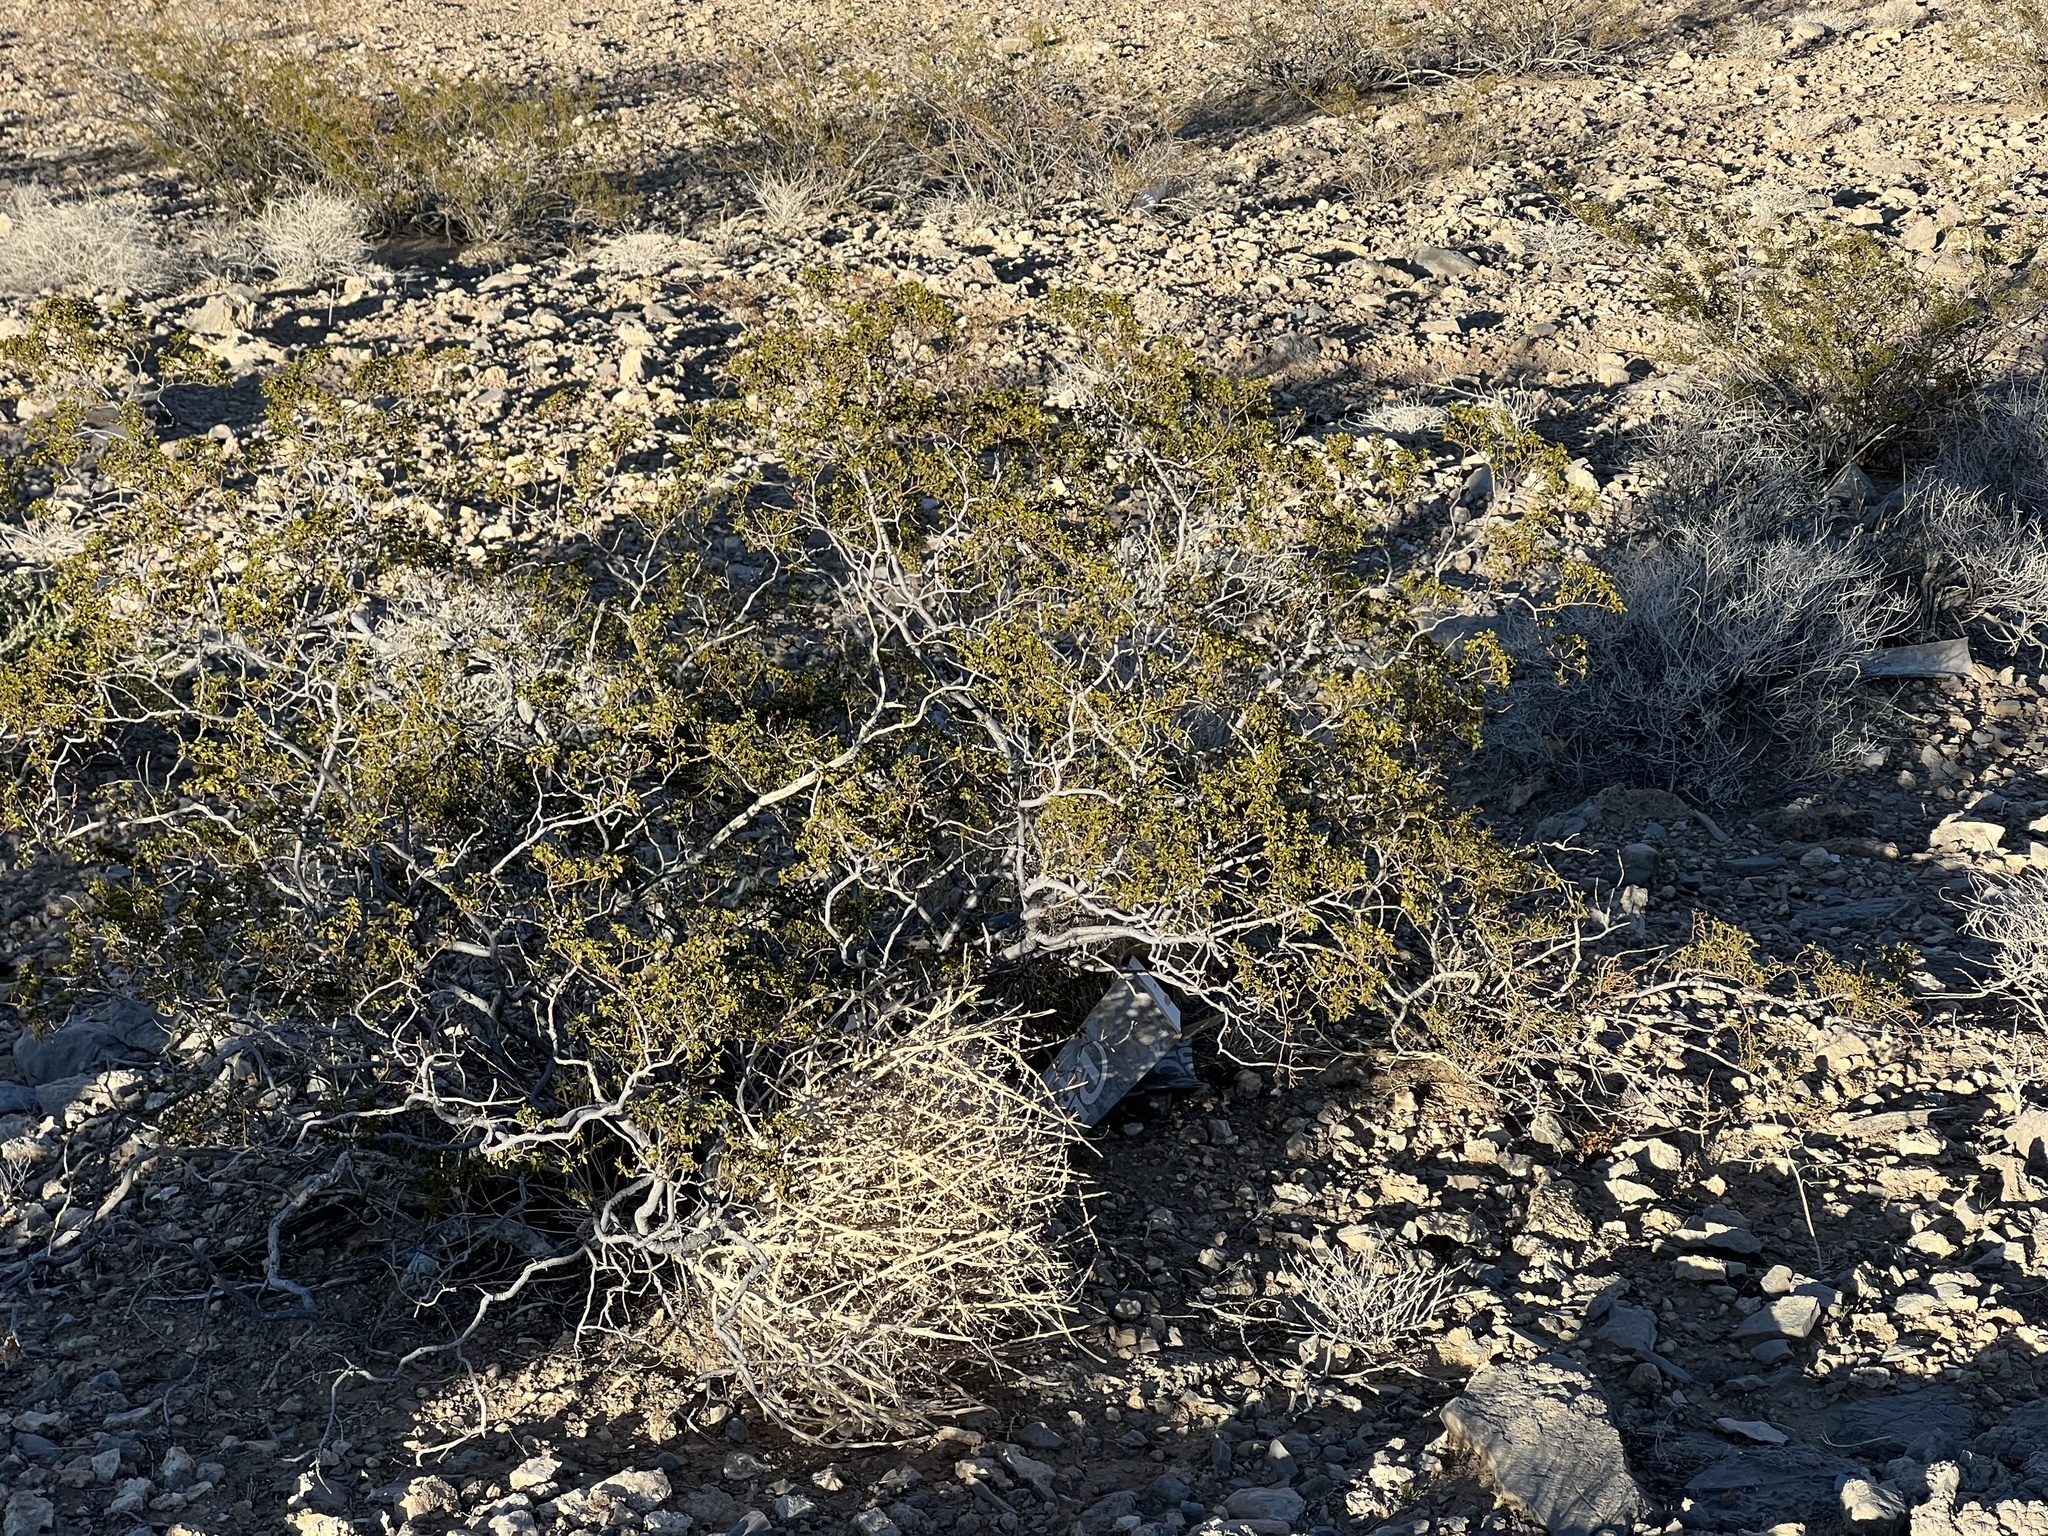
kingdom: Plantae
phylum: Tracheophyta
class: Magnoliopsida
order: Zygophyllales
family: Zygophyllaceae
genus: Larrea
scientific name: Larrea tridentata
